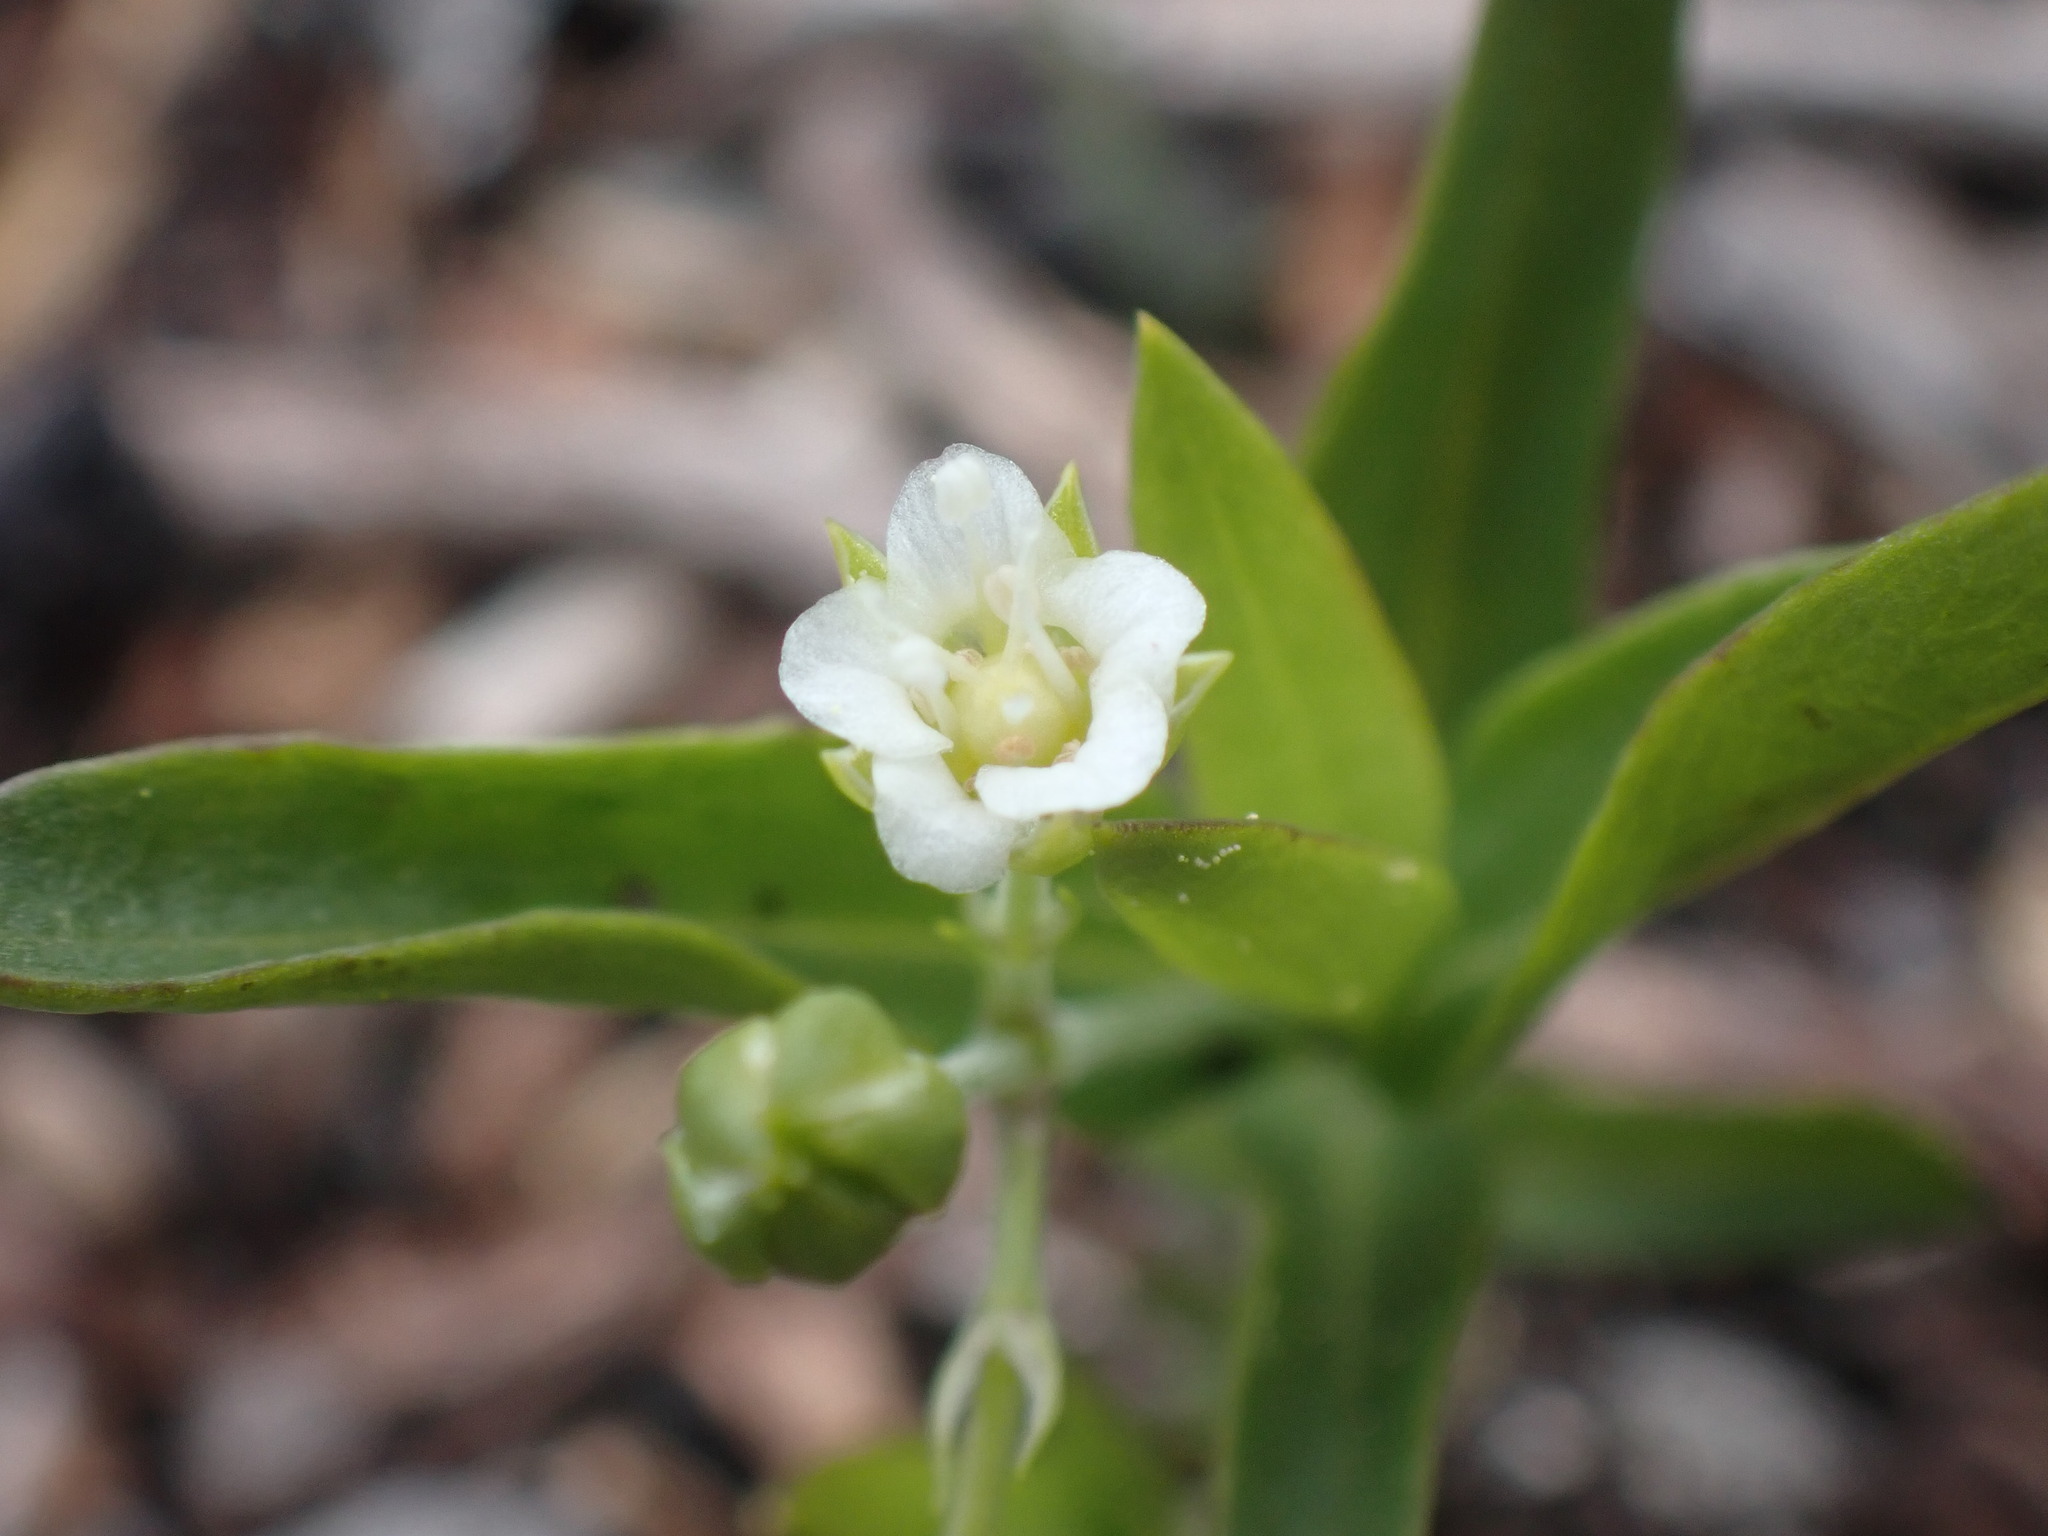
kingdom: Plantae
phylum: Tracheophyta
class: Magnoliopsida
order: Caryophyllales
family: Caryophyllaceae
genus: Moehringia
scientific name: Moehringia macrophylla
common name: Big-leaf sandwort
